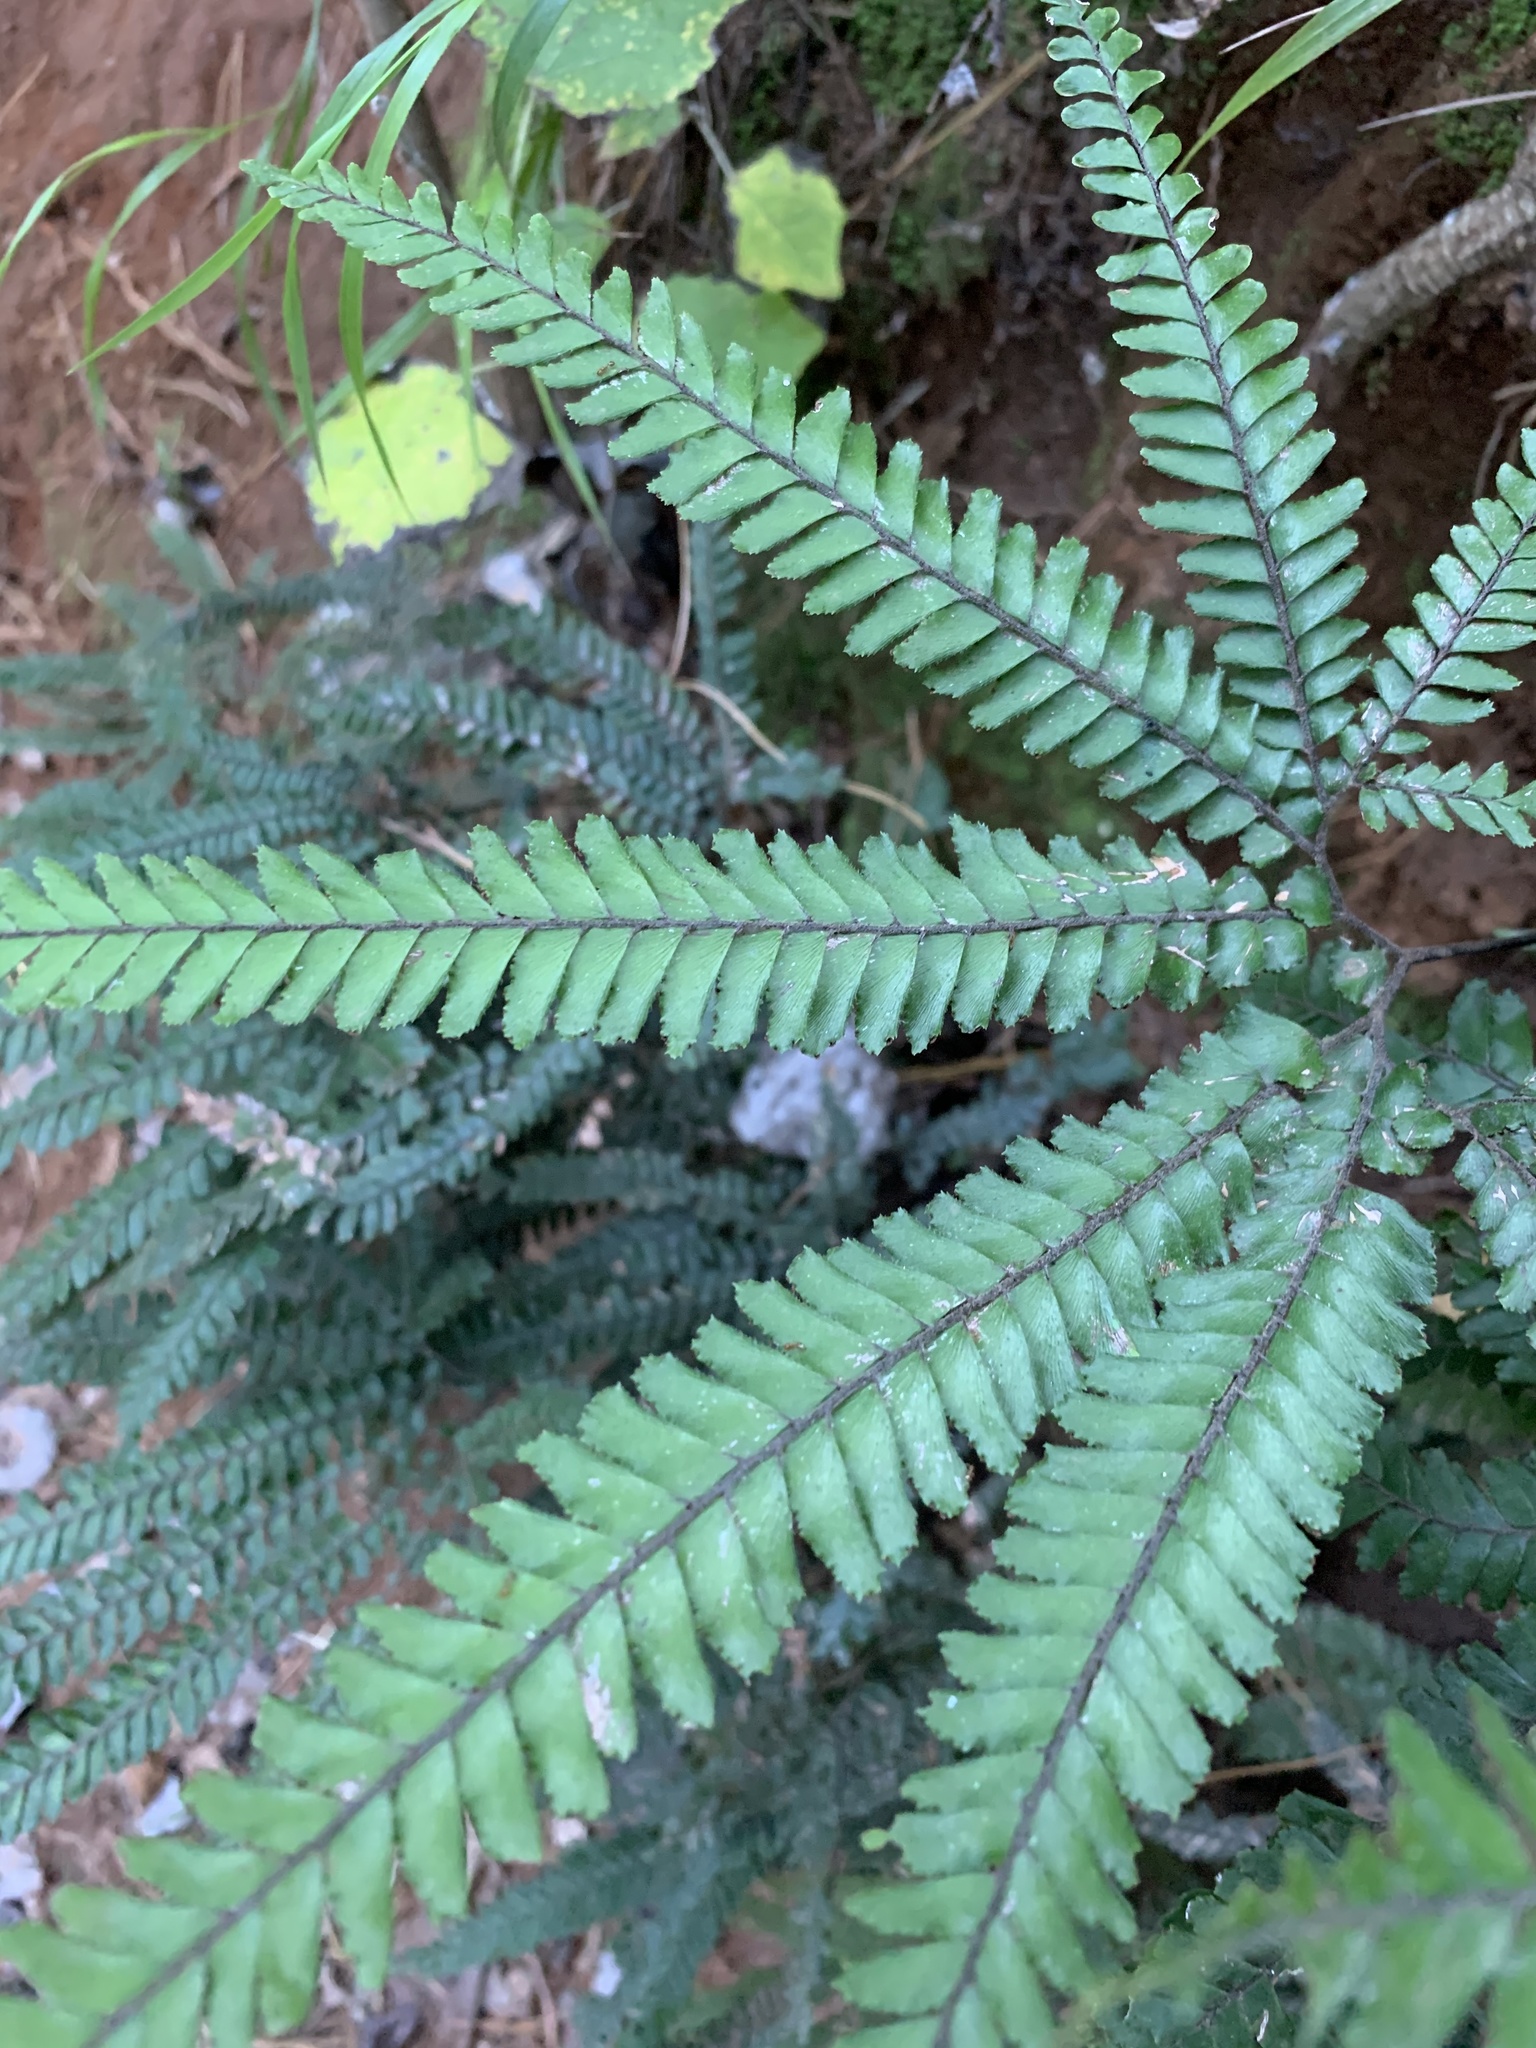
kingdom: Plantae
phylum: Tracheophyta
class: Polypodiopsida
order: Polypodiales
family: Pteridaceae
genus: Adiantum
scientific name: Adiantum hispidulum
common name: Rough maidenhair
